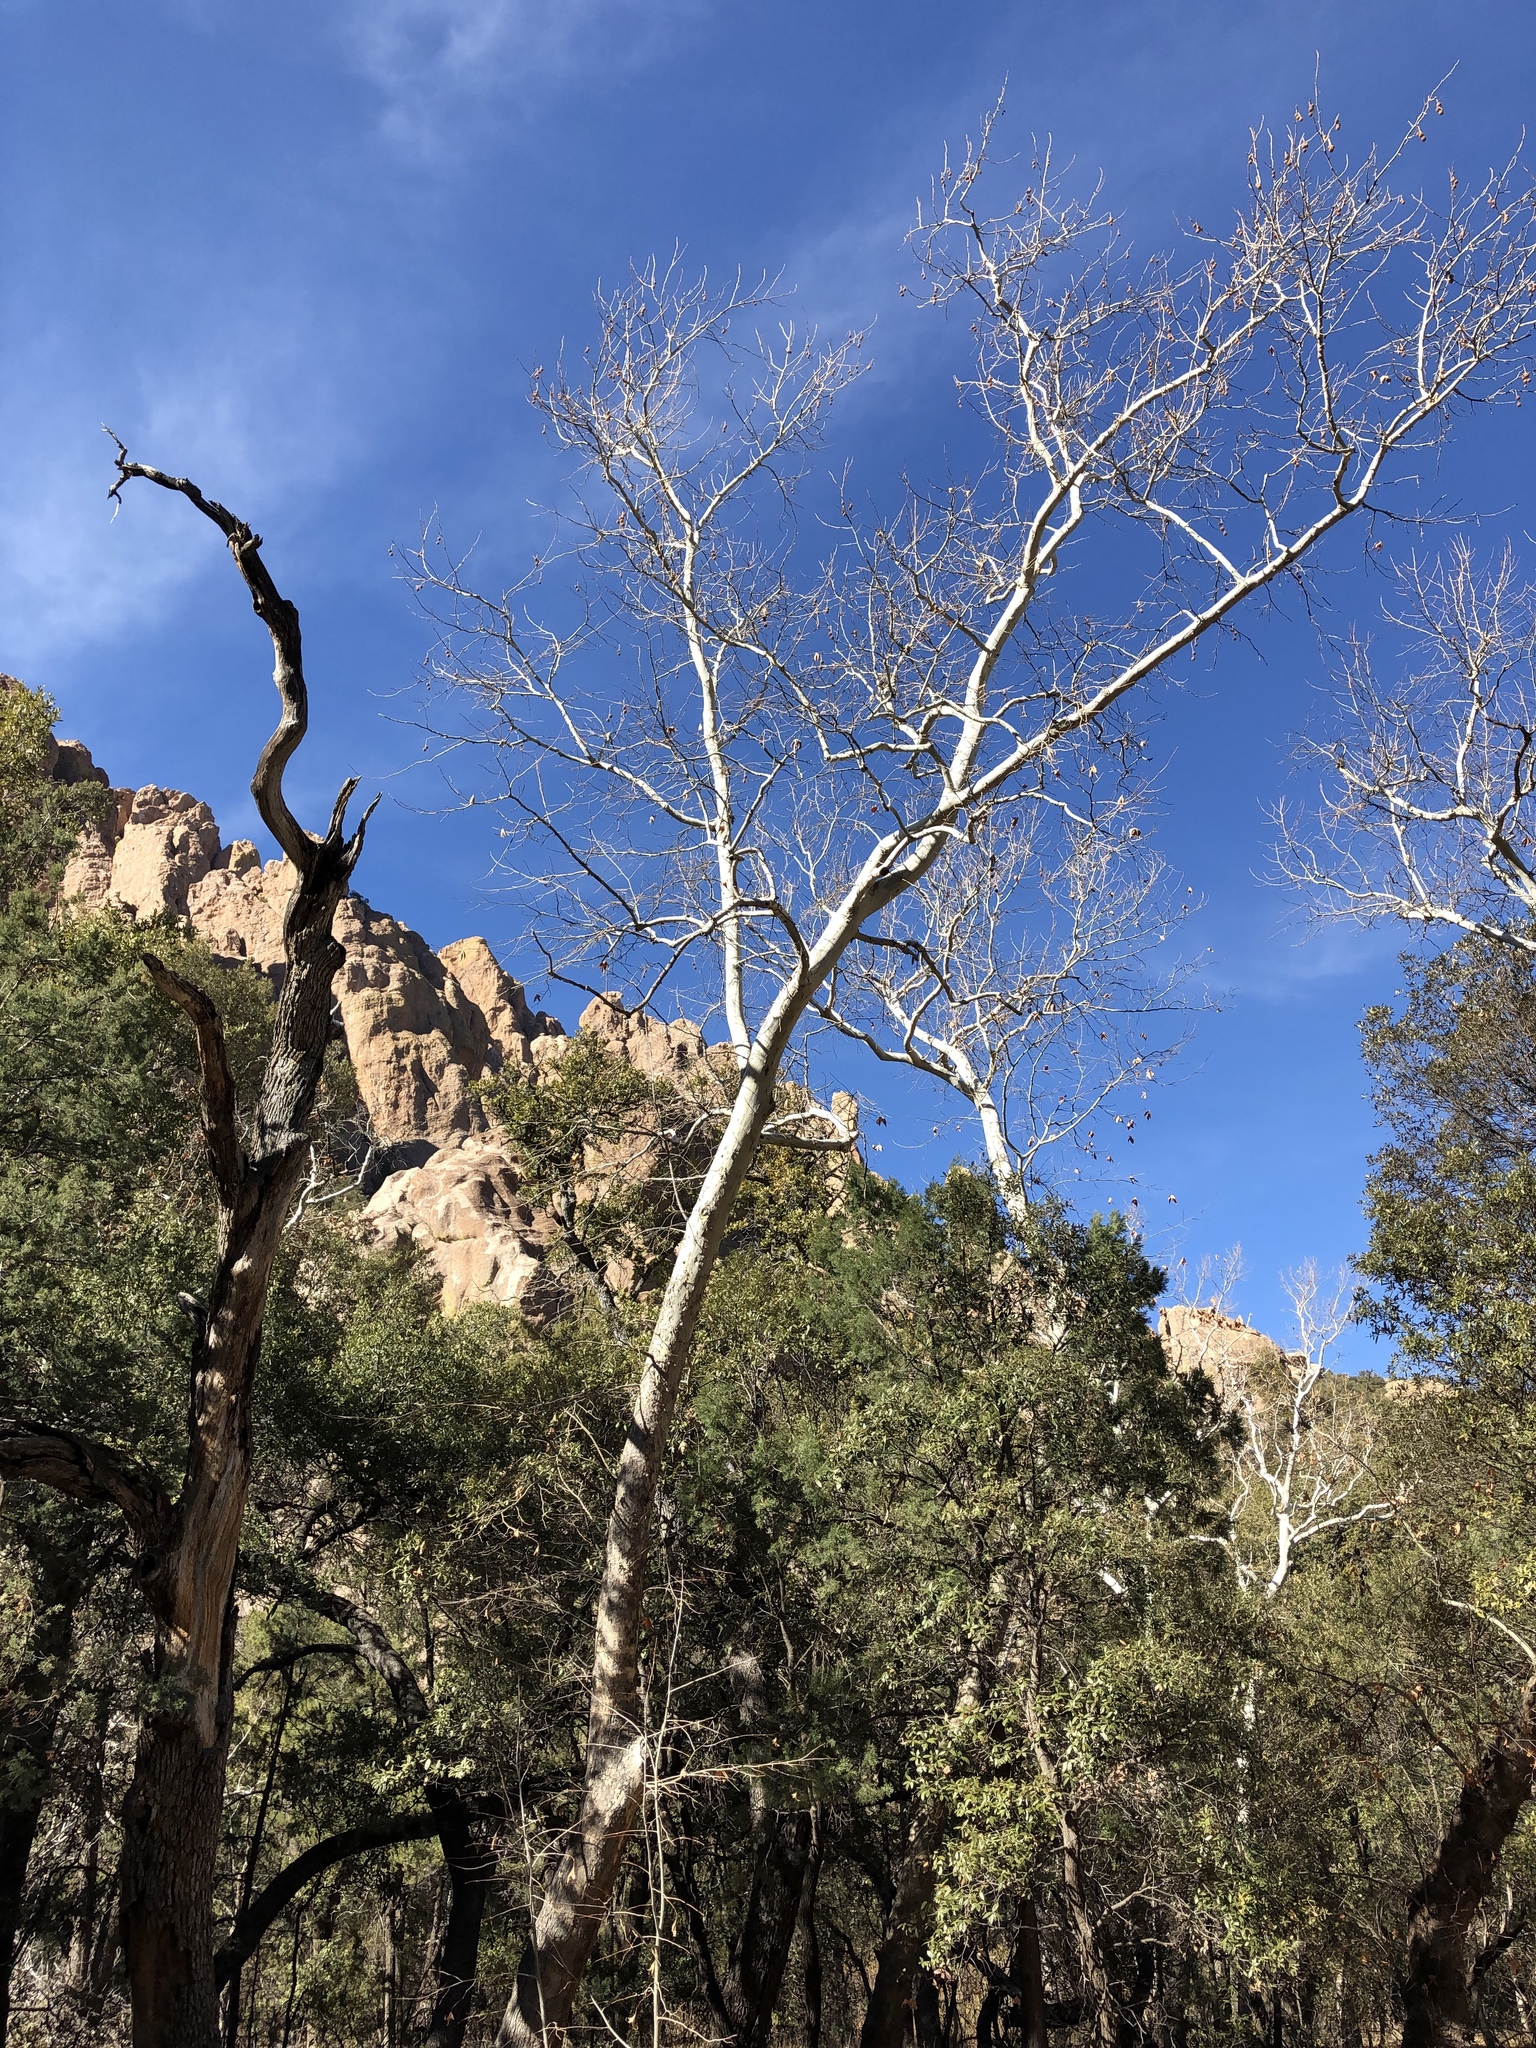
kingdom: Plantae
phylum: Tracheophyta
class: Magnoliopsida
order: Proteales
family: Platanaceae
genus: Platanus
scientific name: Platanus wrightii
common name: Arizona sycamore
